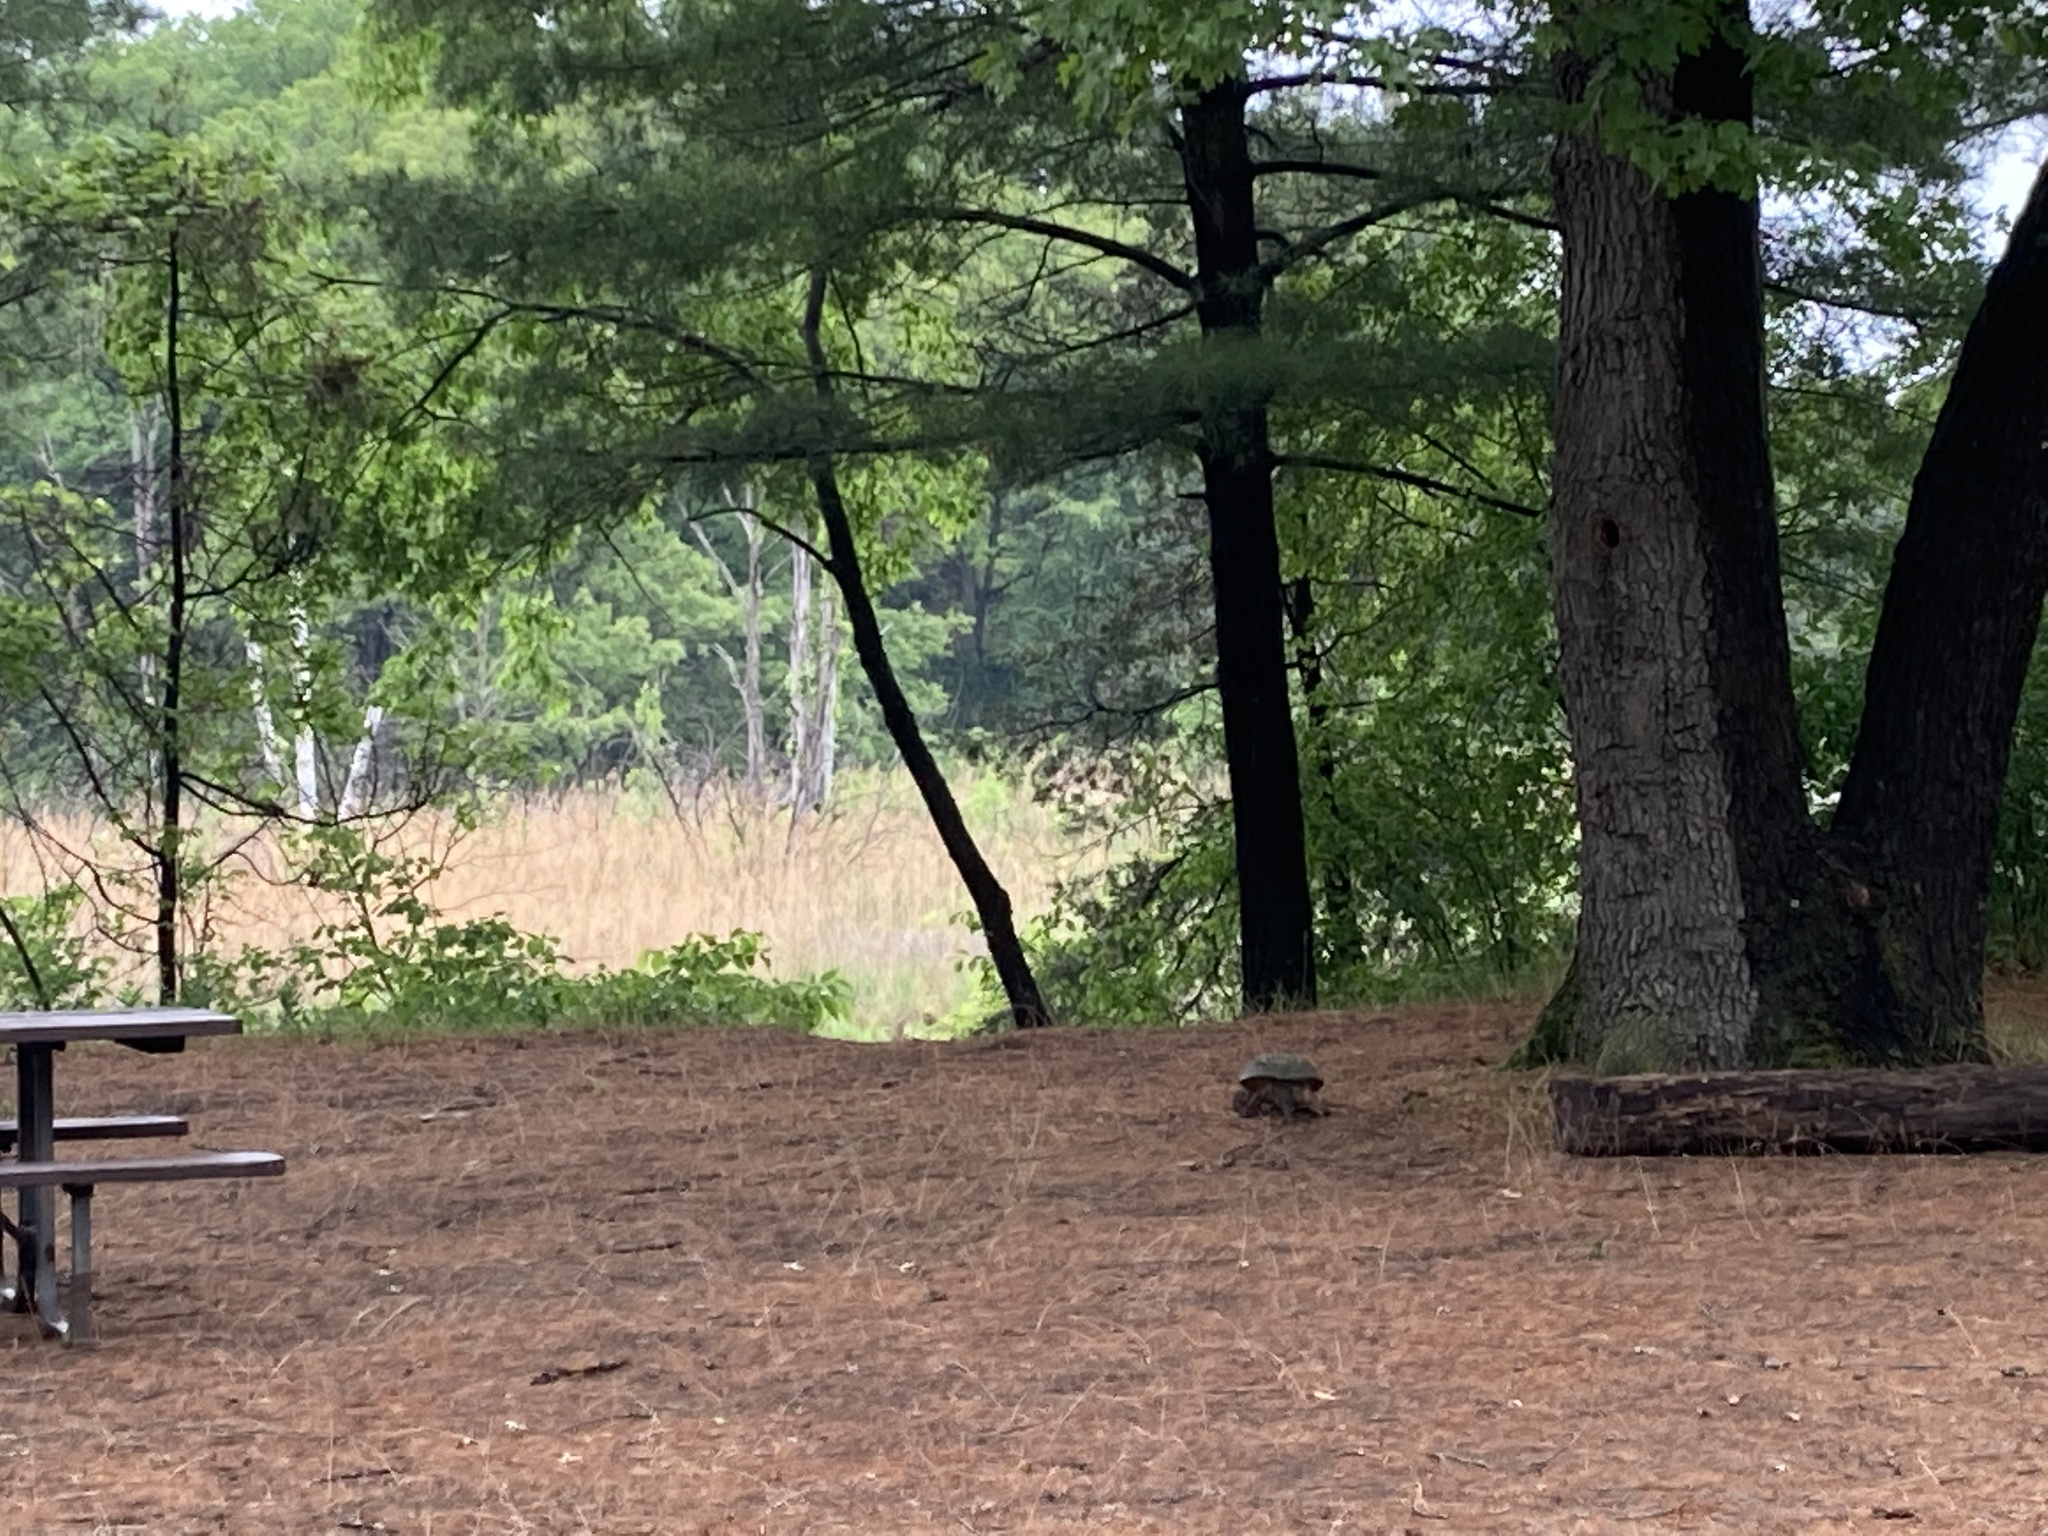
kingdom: Animalia
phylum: Chordata
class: Testudines
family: Chelydridae
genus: Chelydra
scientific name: Chelydra serpentina
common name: Common snapping turtle
